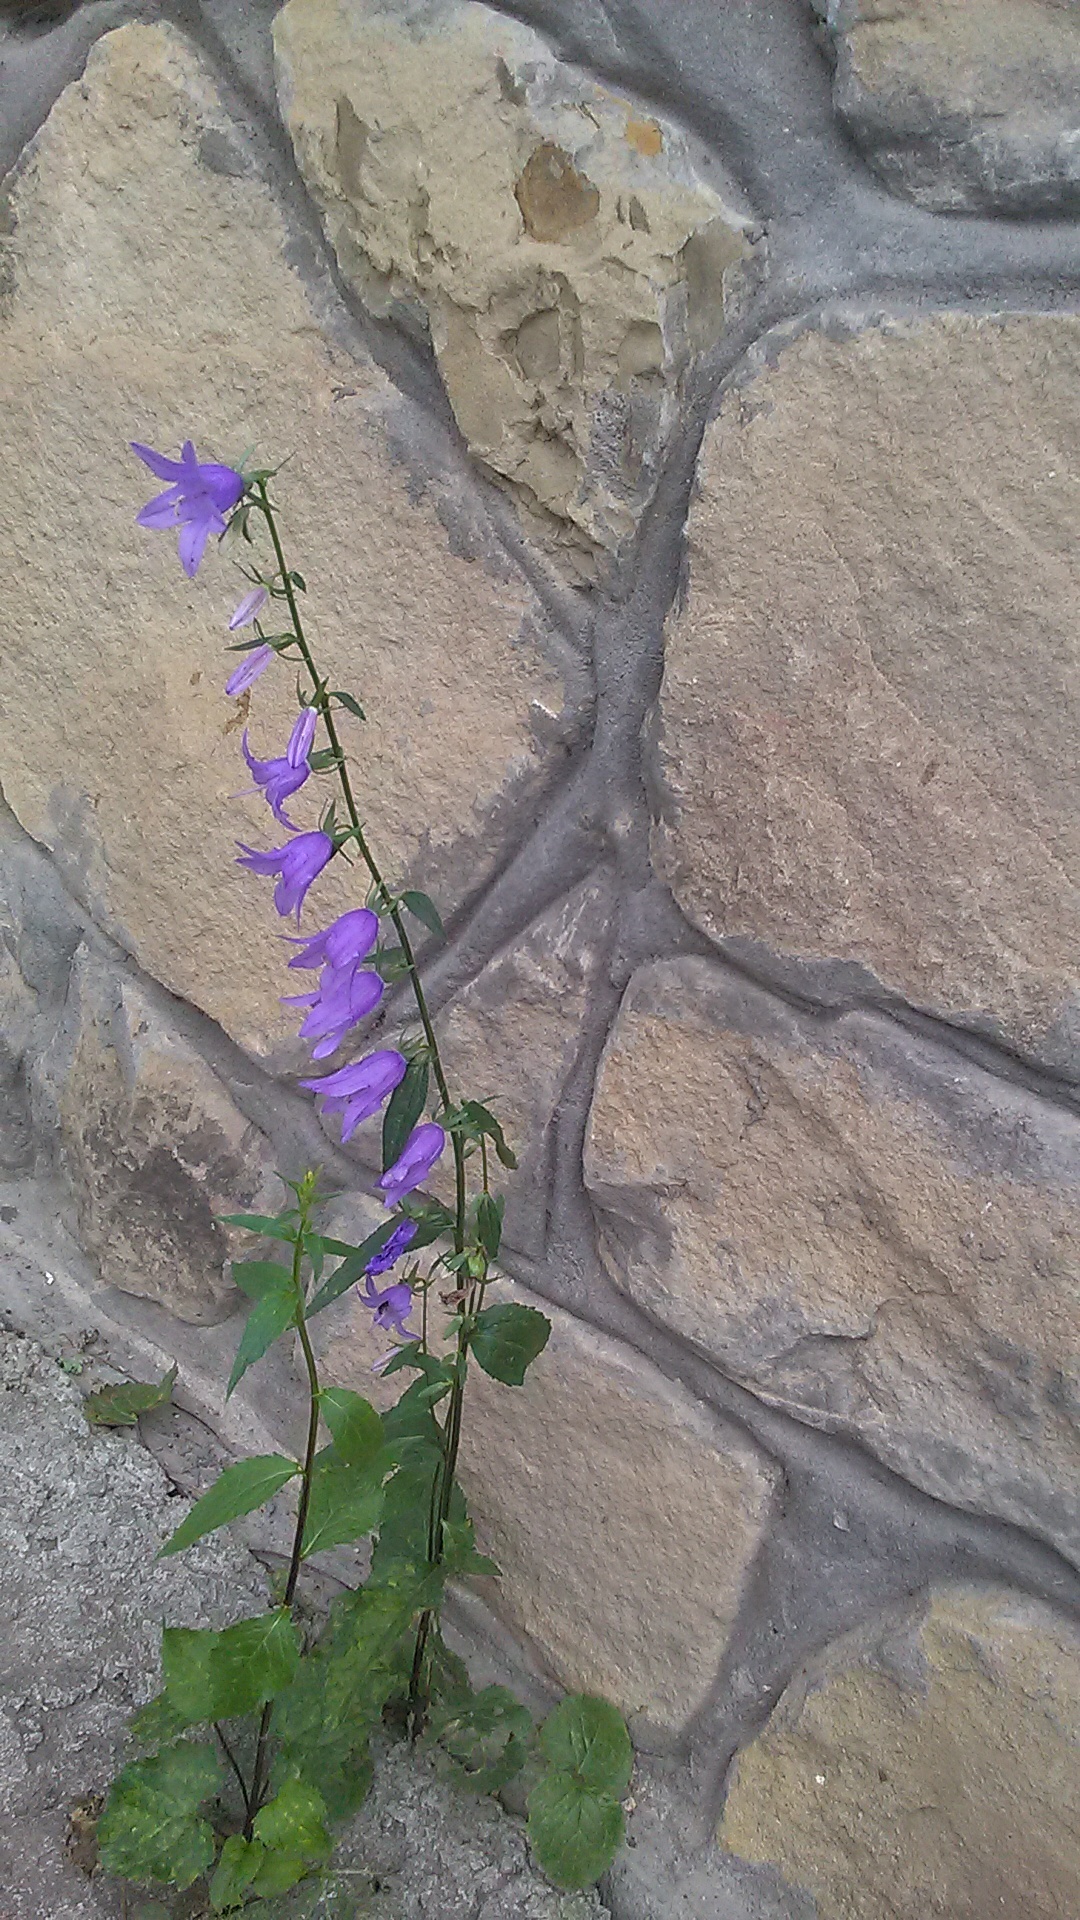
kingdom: Plantae
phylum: Tracheophyta
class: Magnoliopsida
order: Asterales
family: Campanulaceae
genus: Campanula
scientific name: Campanula rapunculoides
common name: Creeping bellflower
